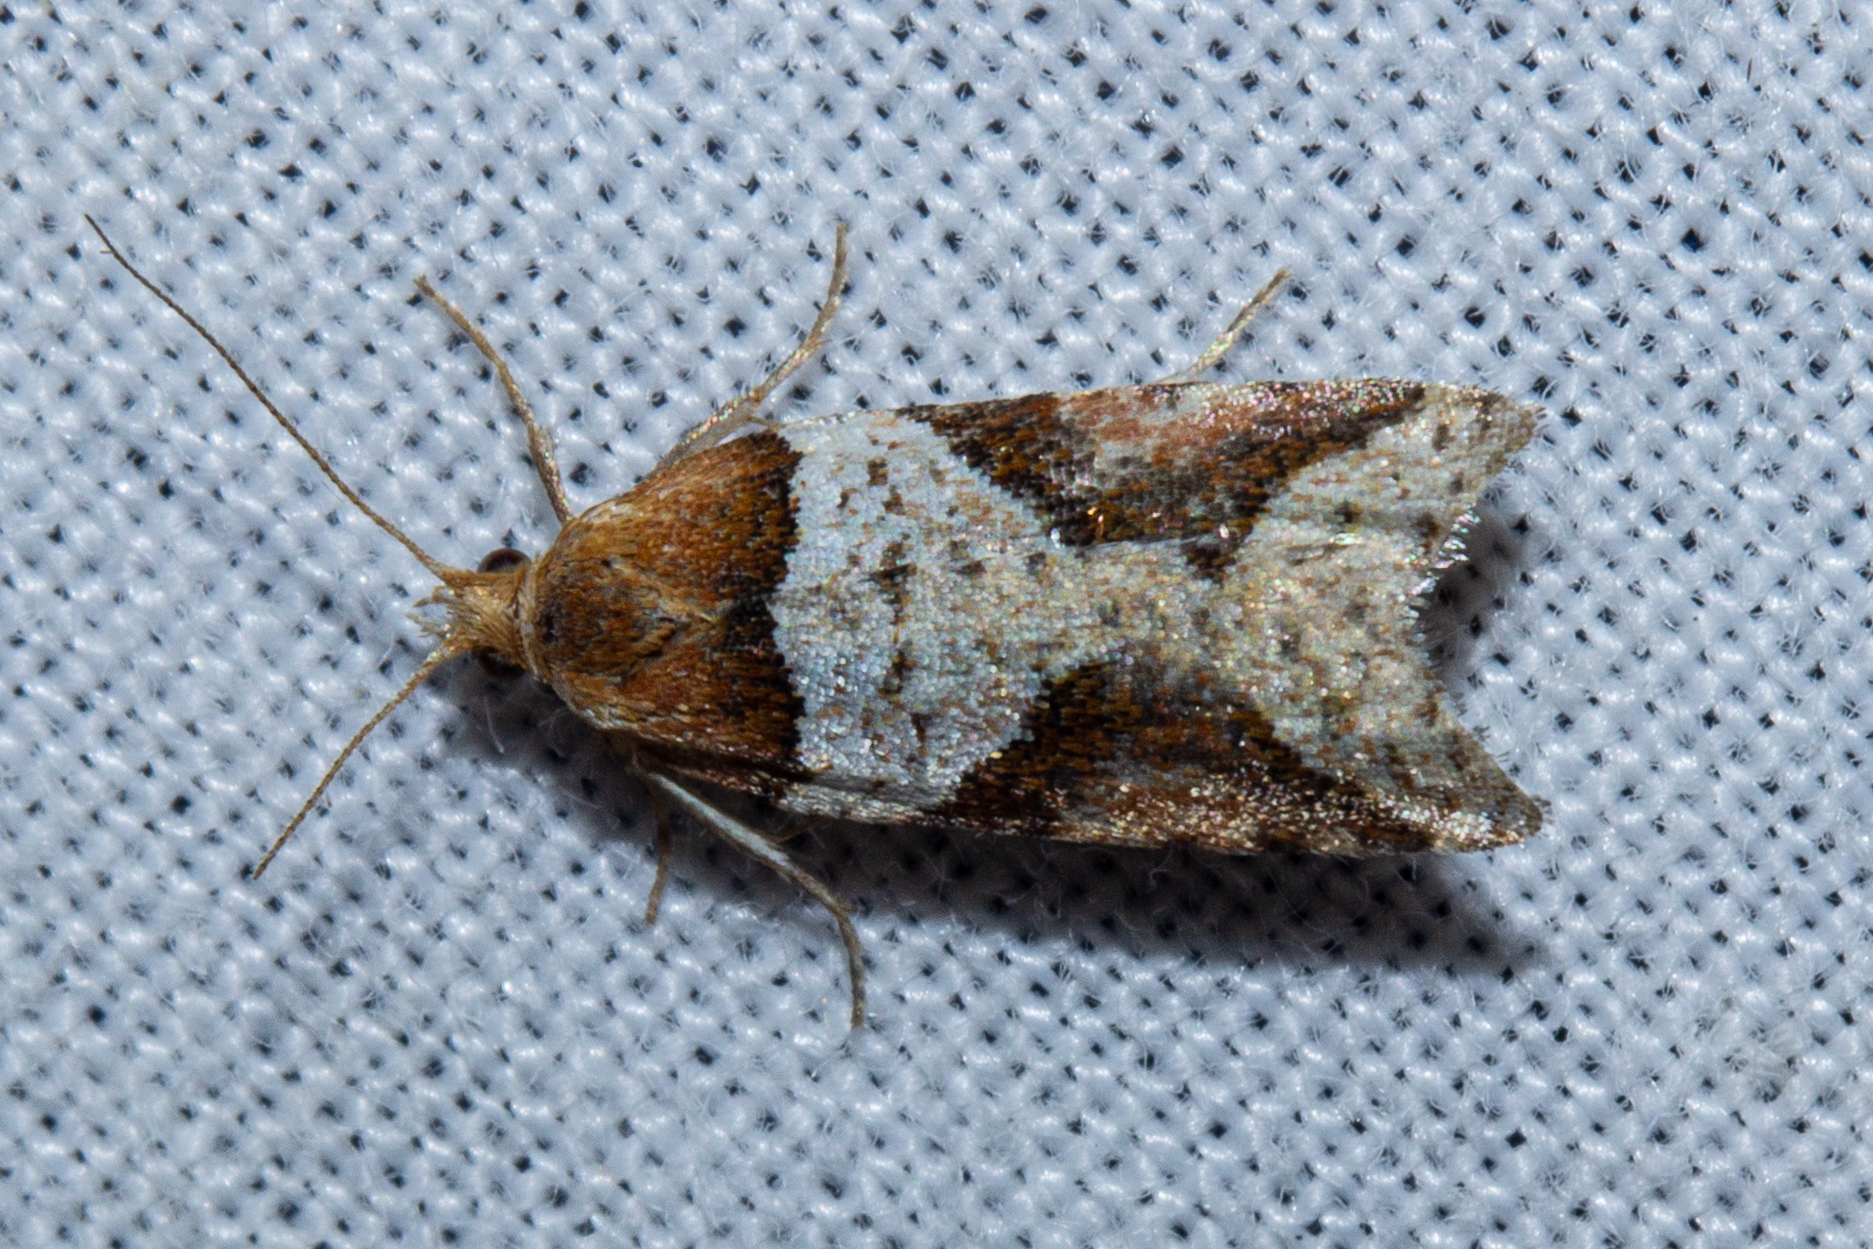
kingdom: Animalia
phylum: Arthropoda
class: Insecta
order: Lepidoptera
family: Tortricidae
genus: Epichorista
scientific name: Epichorista
